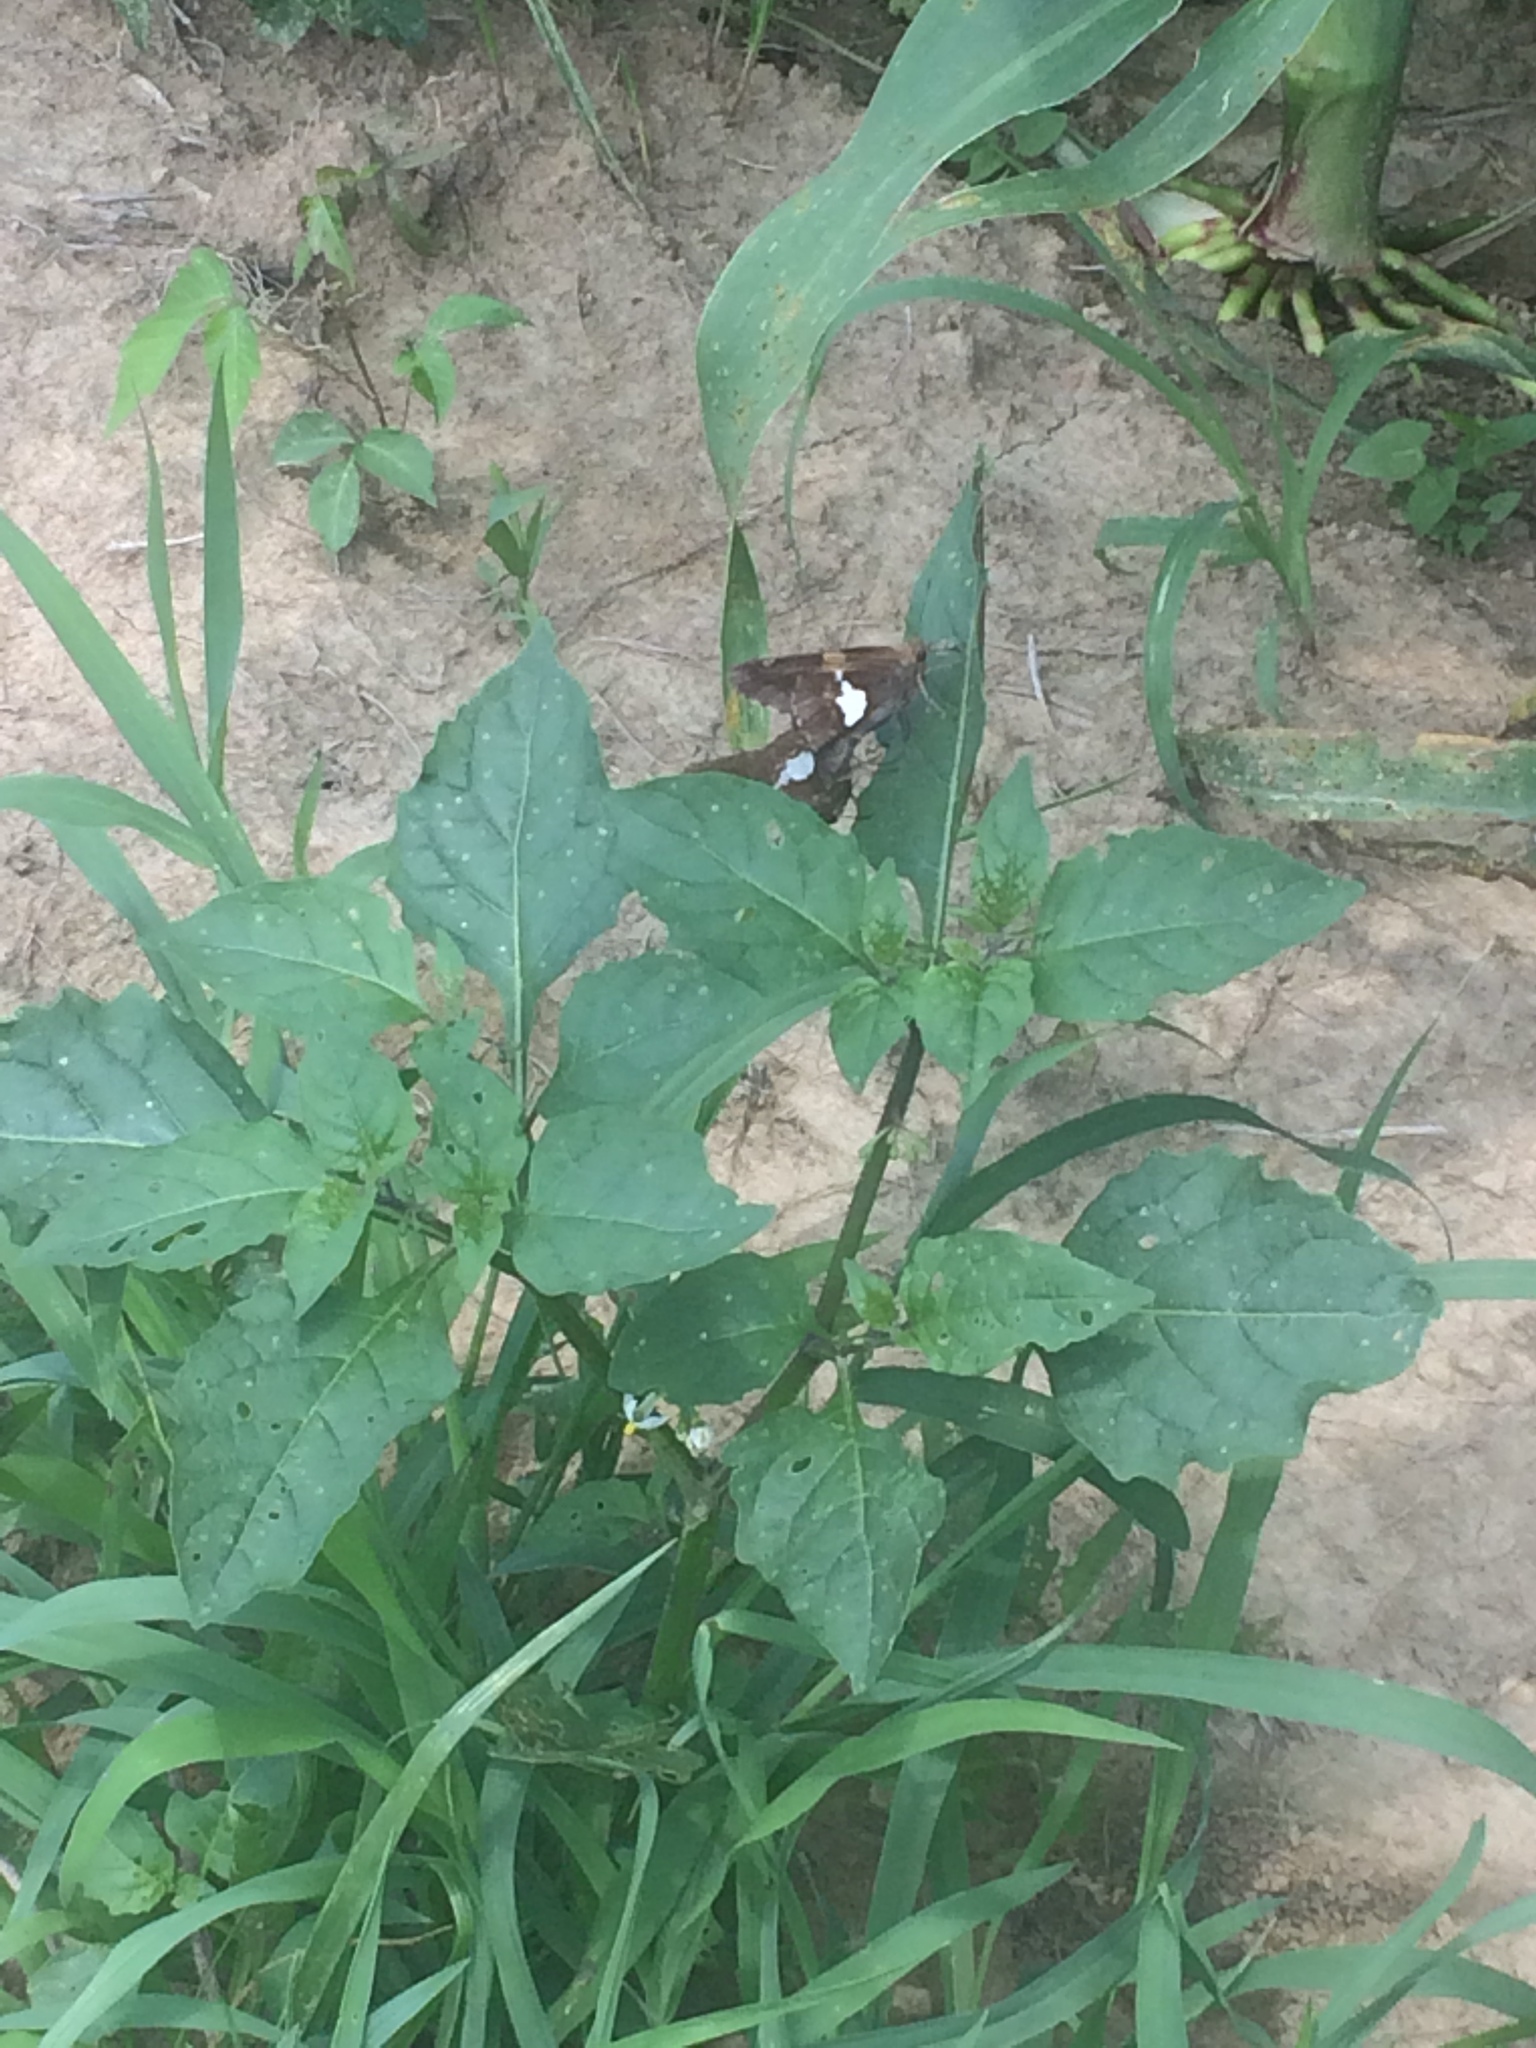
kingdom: Animalia
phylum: Arthropoda
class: Insecta
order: Lepidoptera
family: Hesperiidae
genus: Epargyreus
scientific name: Epargyreus clarus
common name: Silver-spotted skipper
